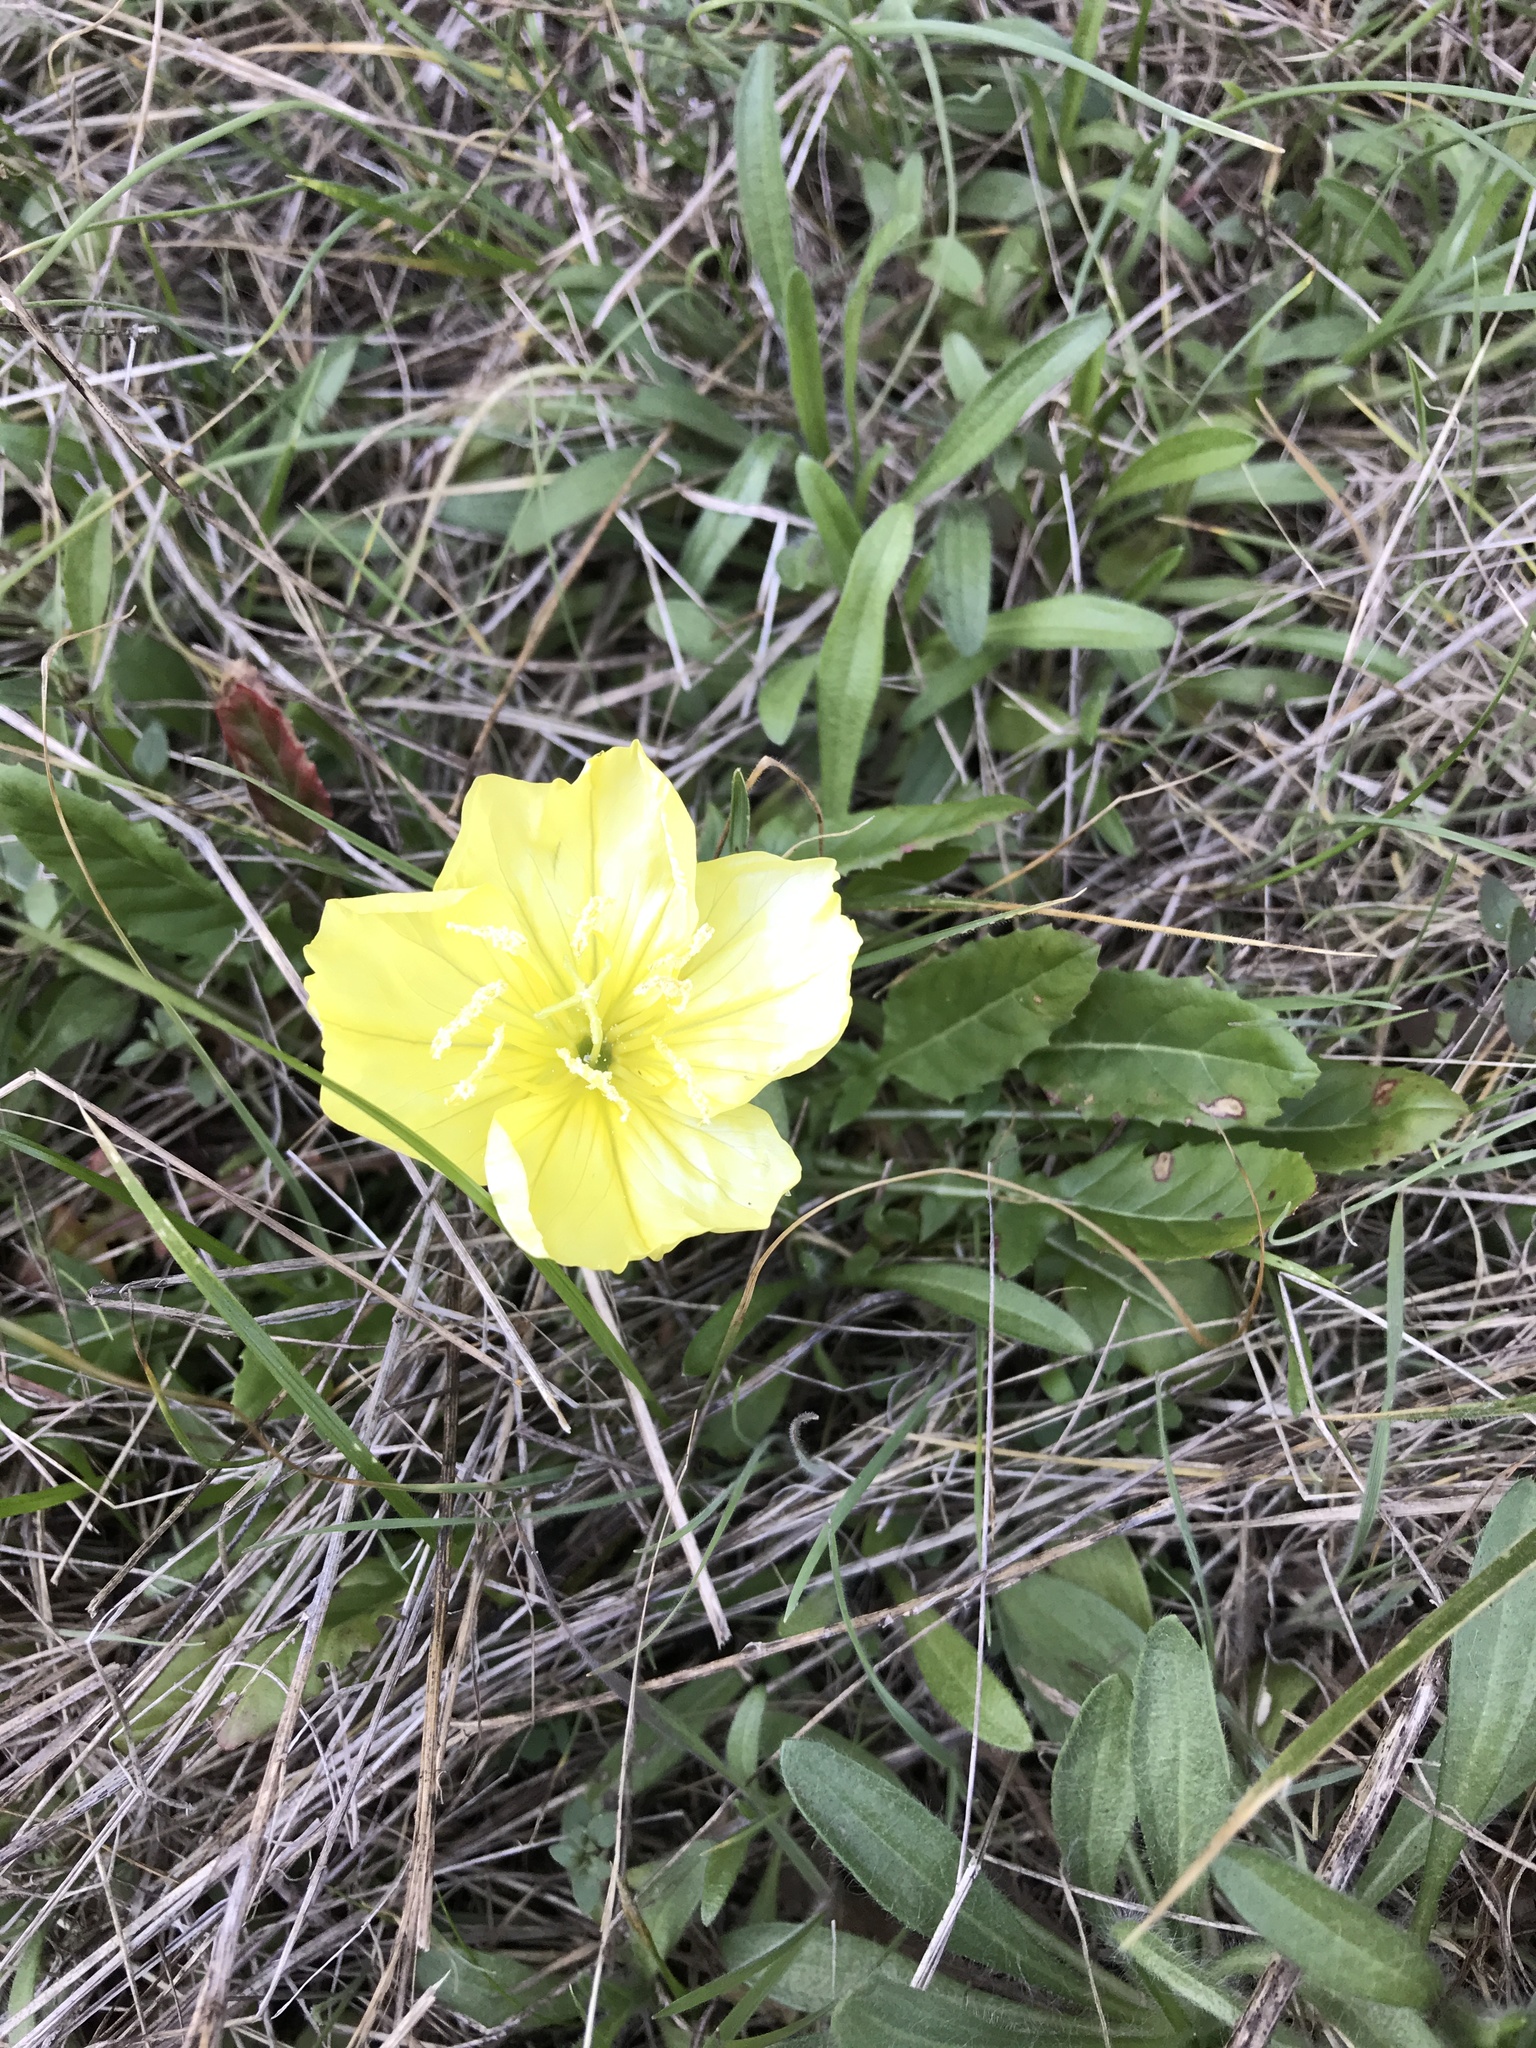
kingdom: Plantae
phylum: Tracheophyta
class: Magnoliopsida
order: Myrtales
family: Onagraceae
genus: Oenothera
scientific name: Oenothera triloba
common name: Sessile evening-primrose
